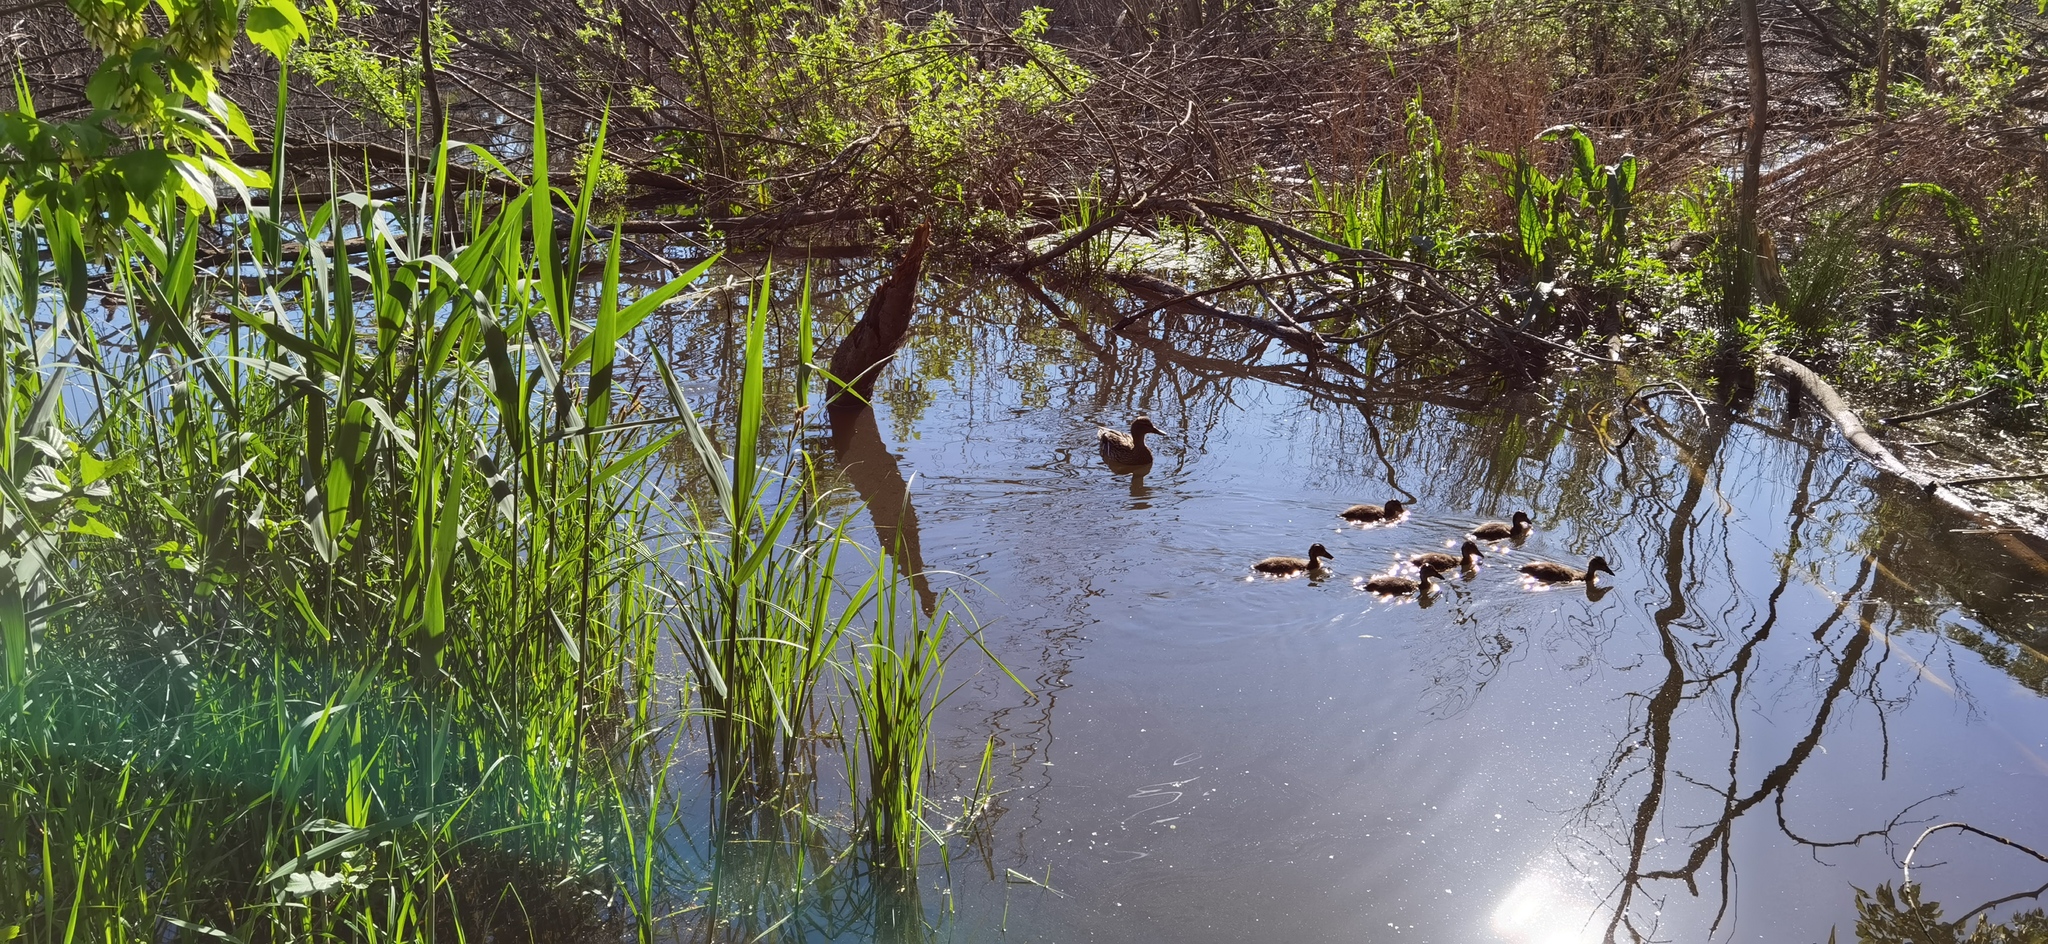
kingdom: Animalia
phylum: Chordata
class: Aves
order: Anseriformes
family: Anatidae
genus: Anas
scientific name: Anas platyrhynchos
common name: Mallard
